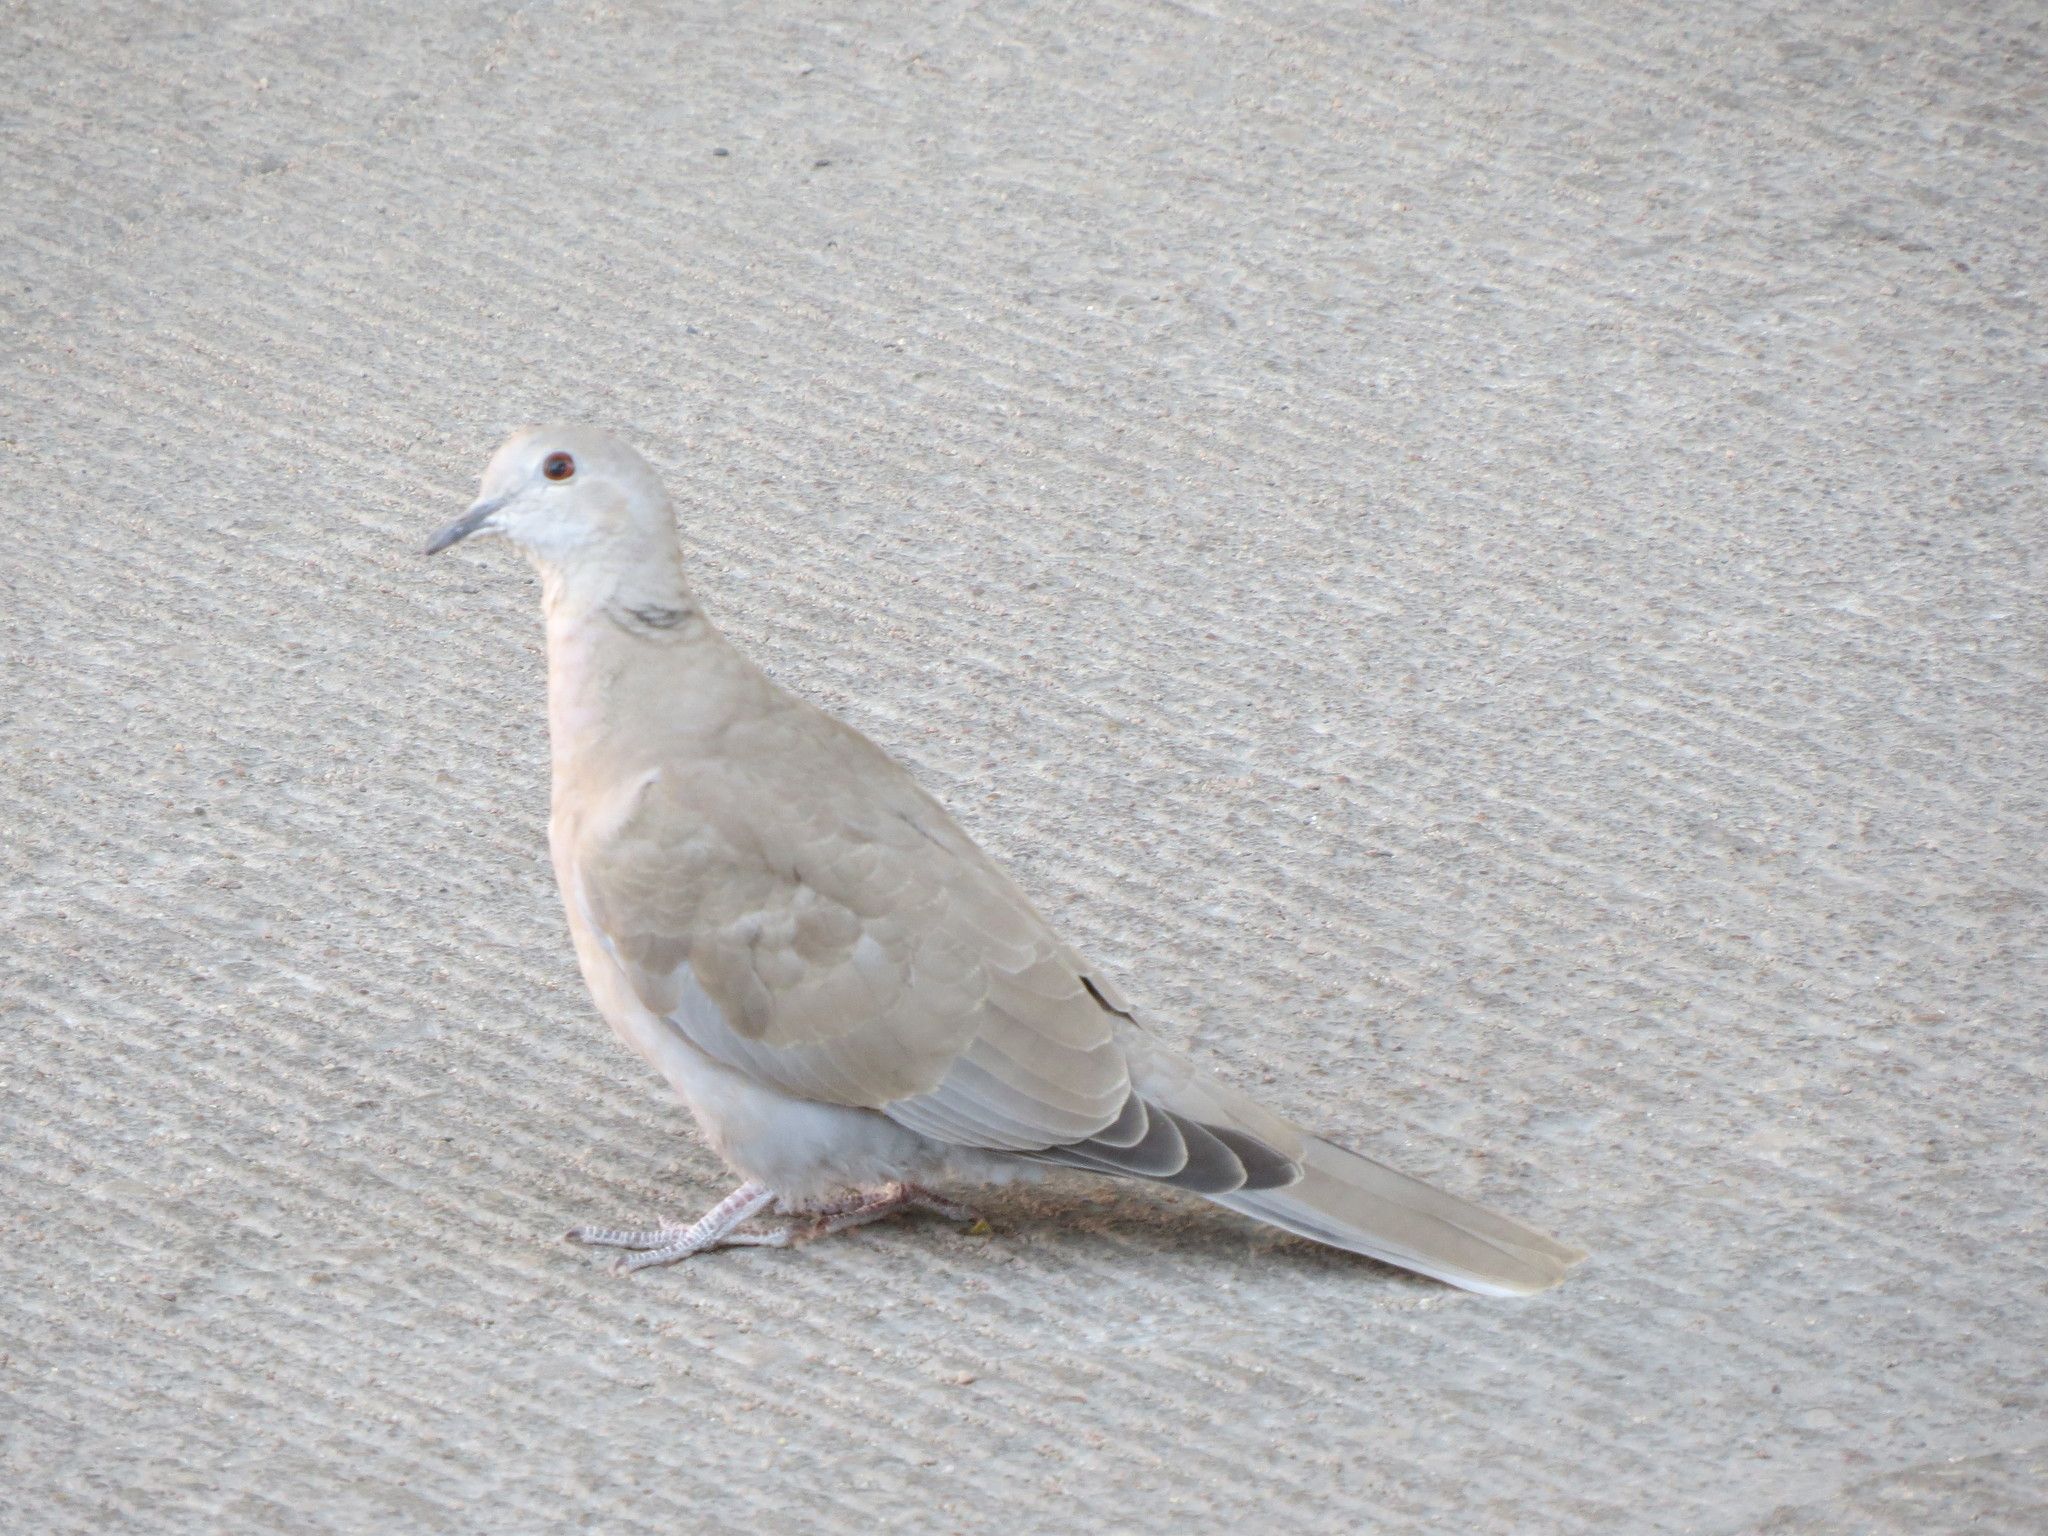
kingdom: Animalia
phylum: Chordata
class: Aves
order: Columbiformes
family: Columbidae
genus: Streptopelia
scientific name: Streptopelia decaocto
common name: Eurasian collared dove
